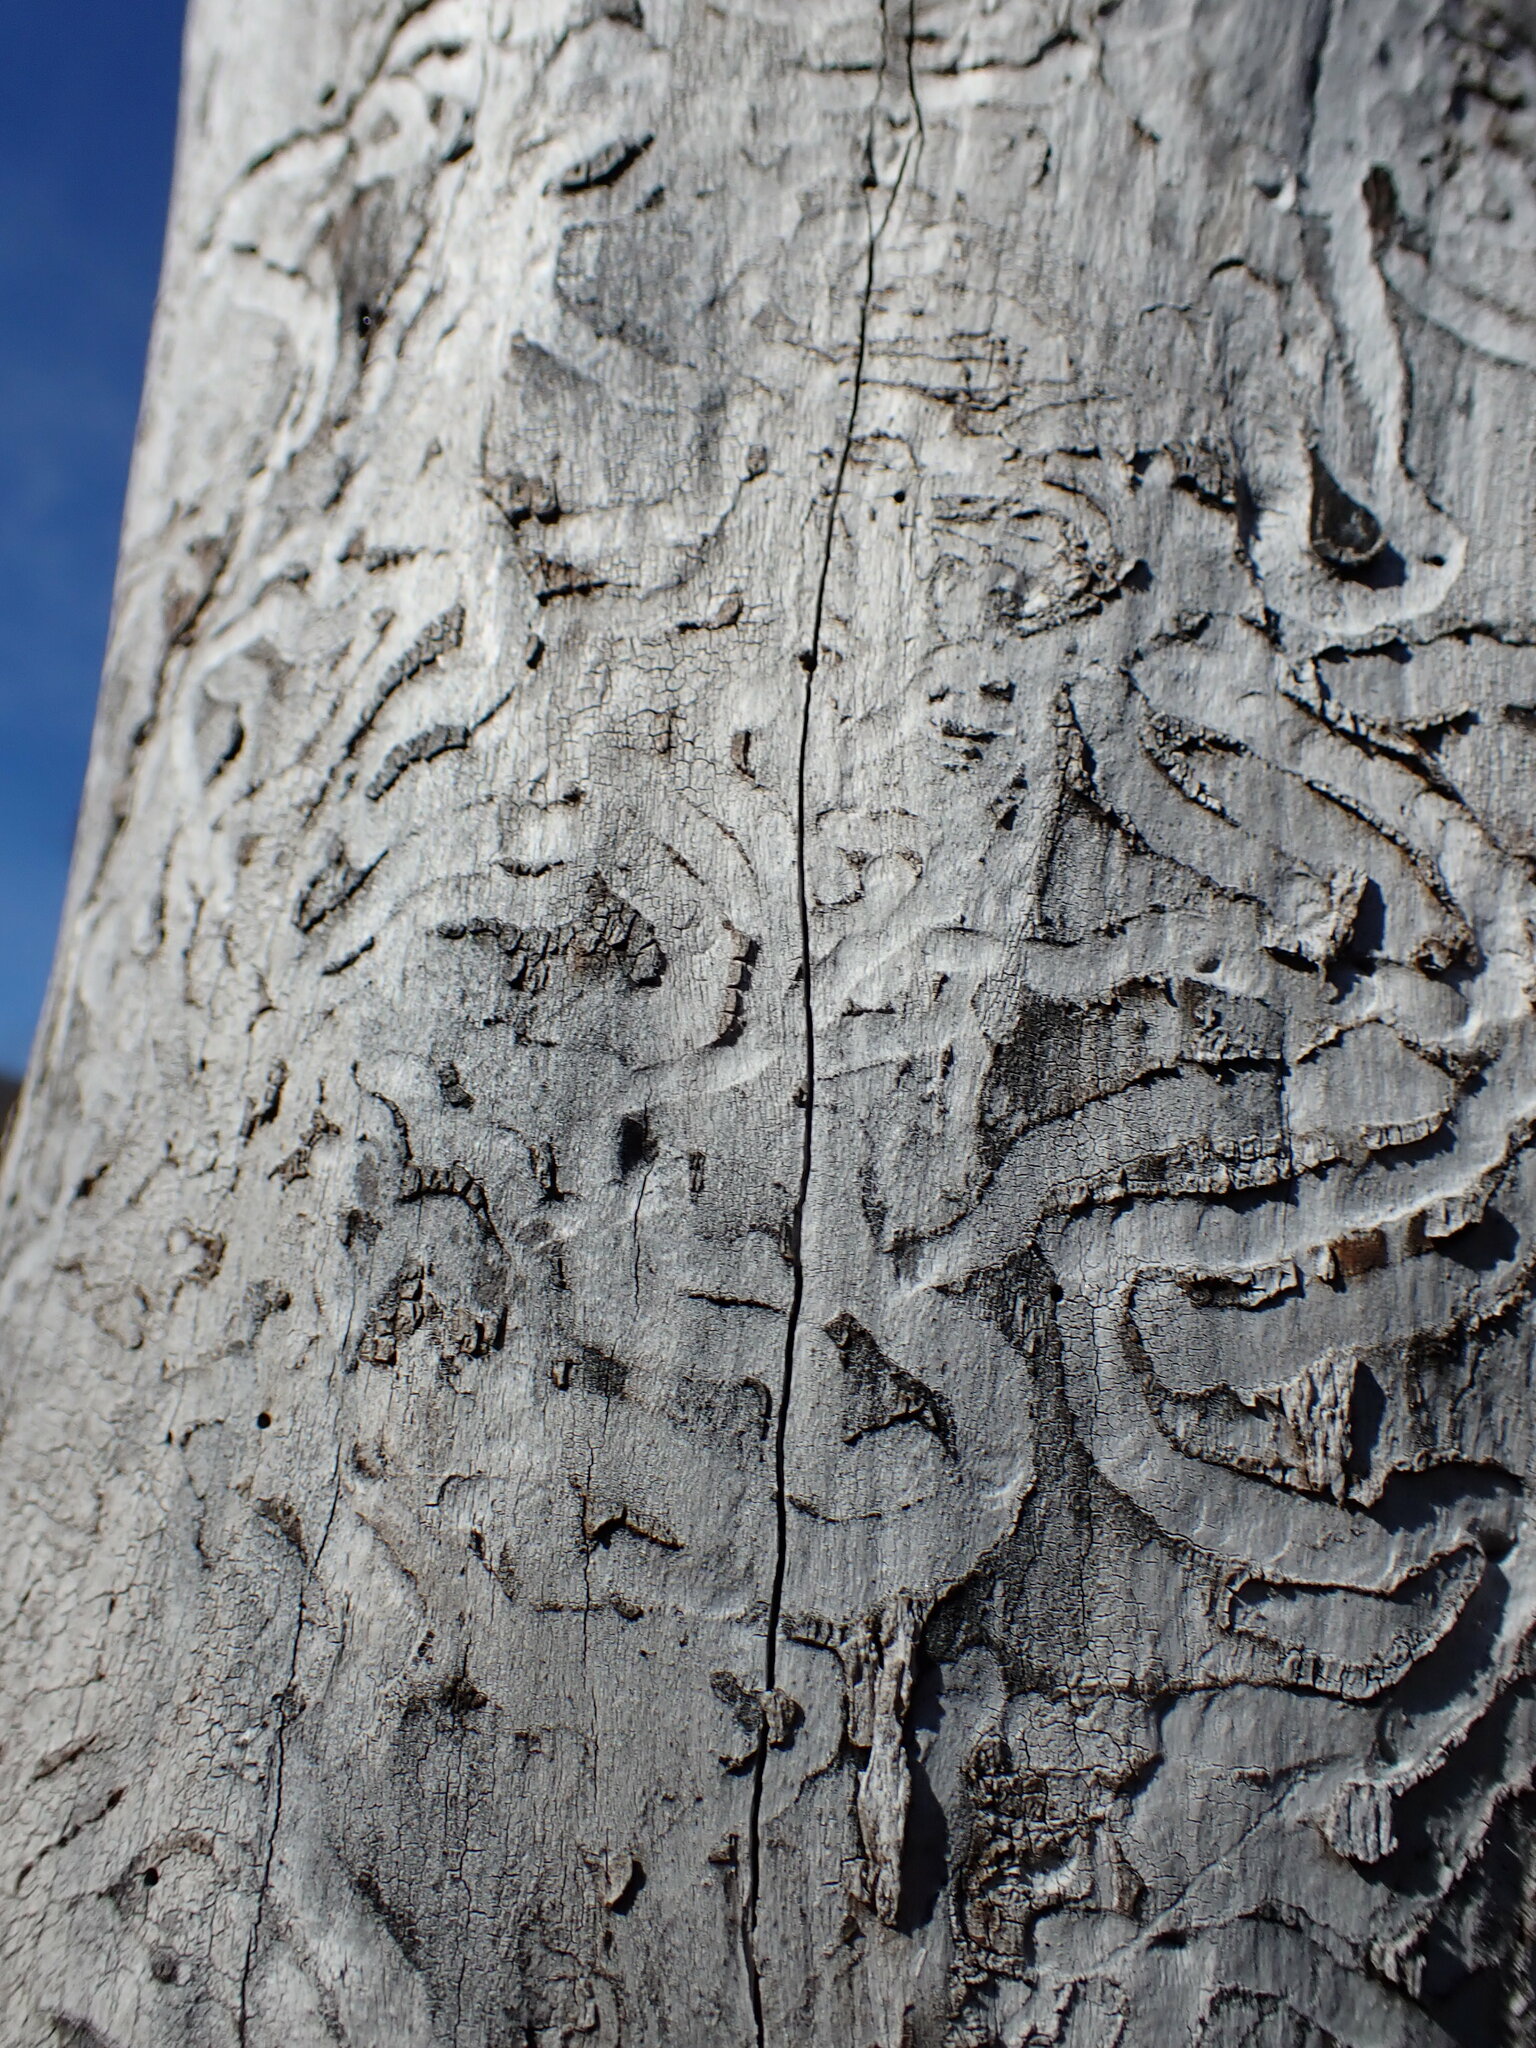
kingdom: Animalia
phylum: Arthropoda
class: Insecta
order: Coleoptera
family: Buprestidae
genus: Agrilus
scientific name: Agrilus planipennis
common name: Emerald ash borer
